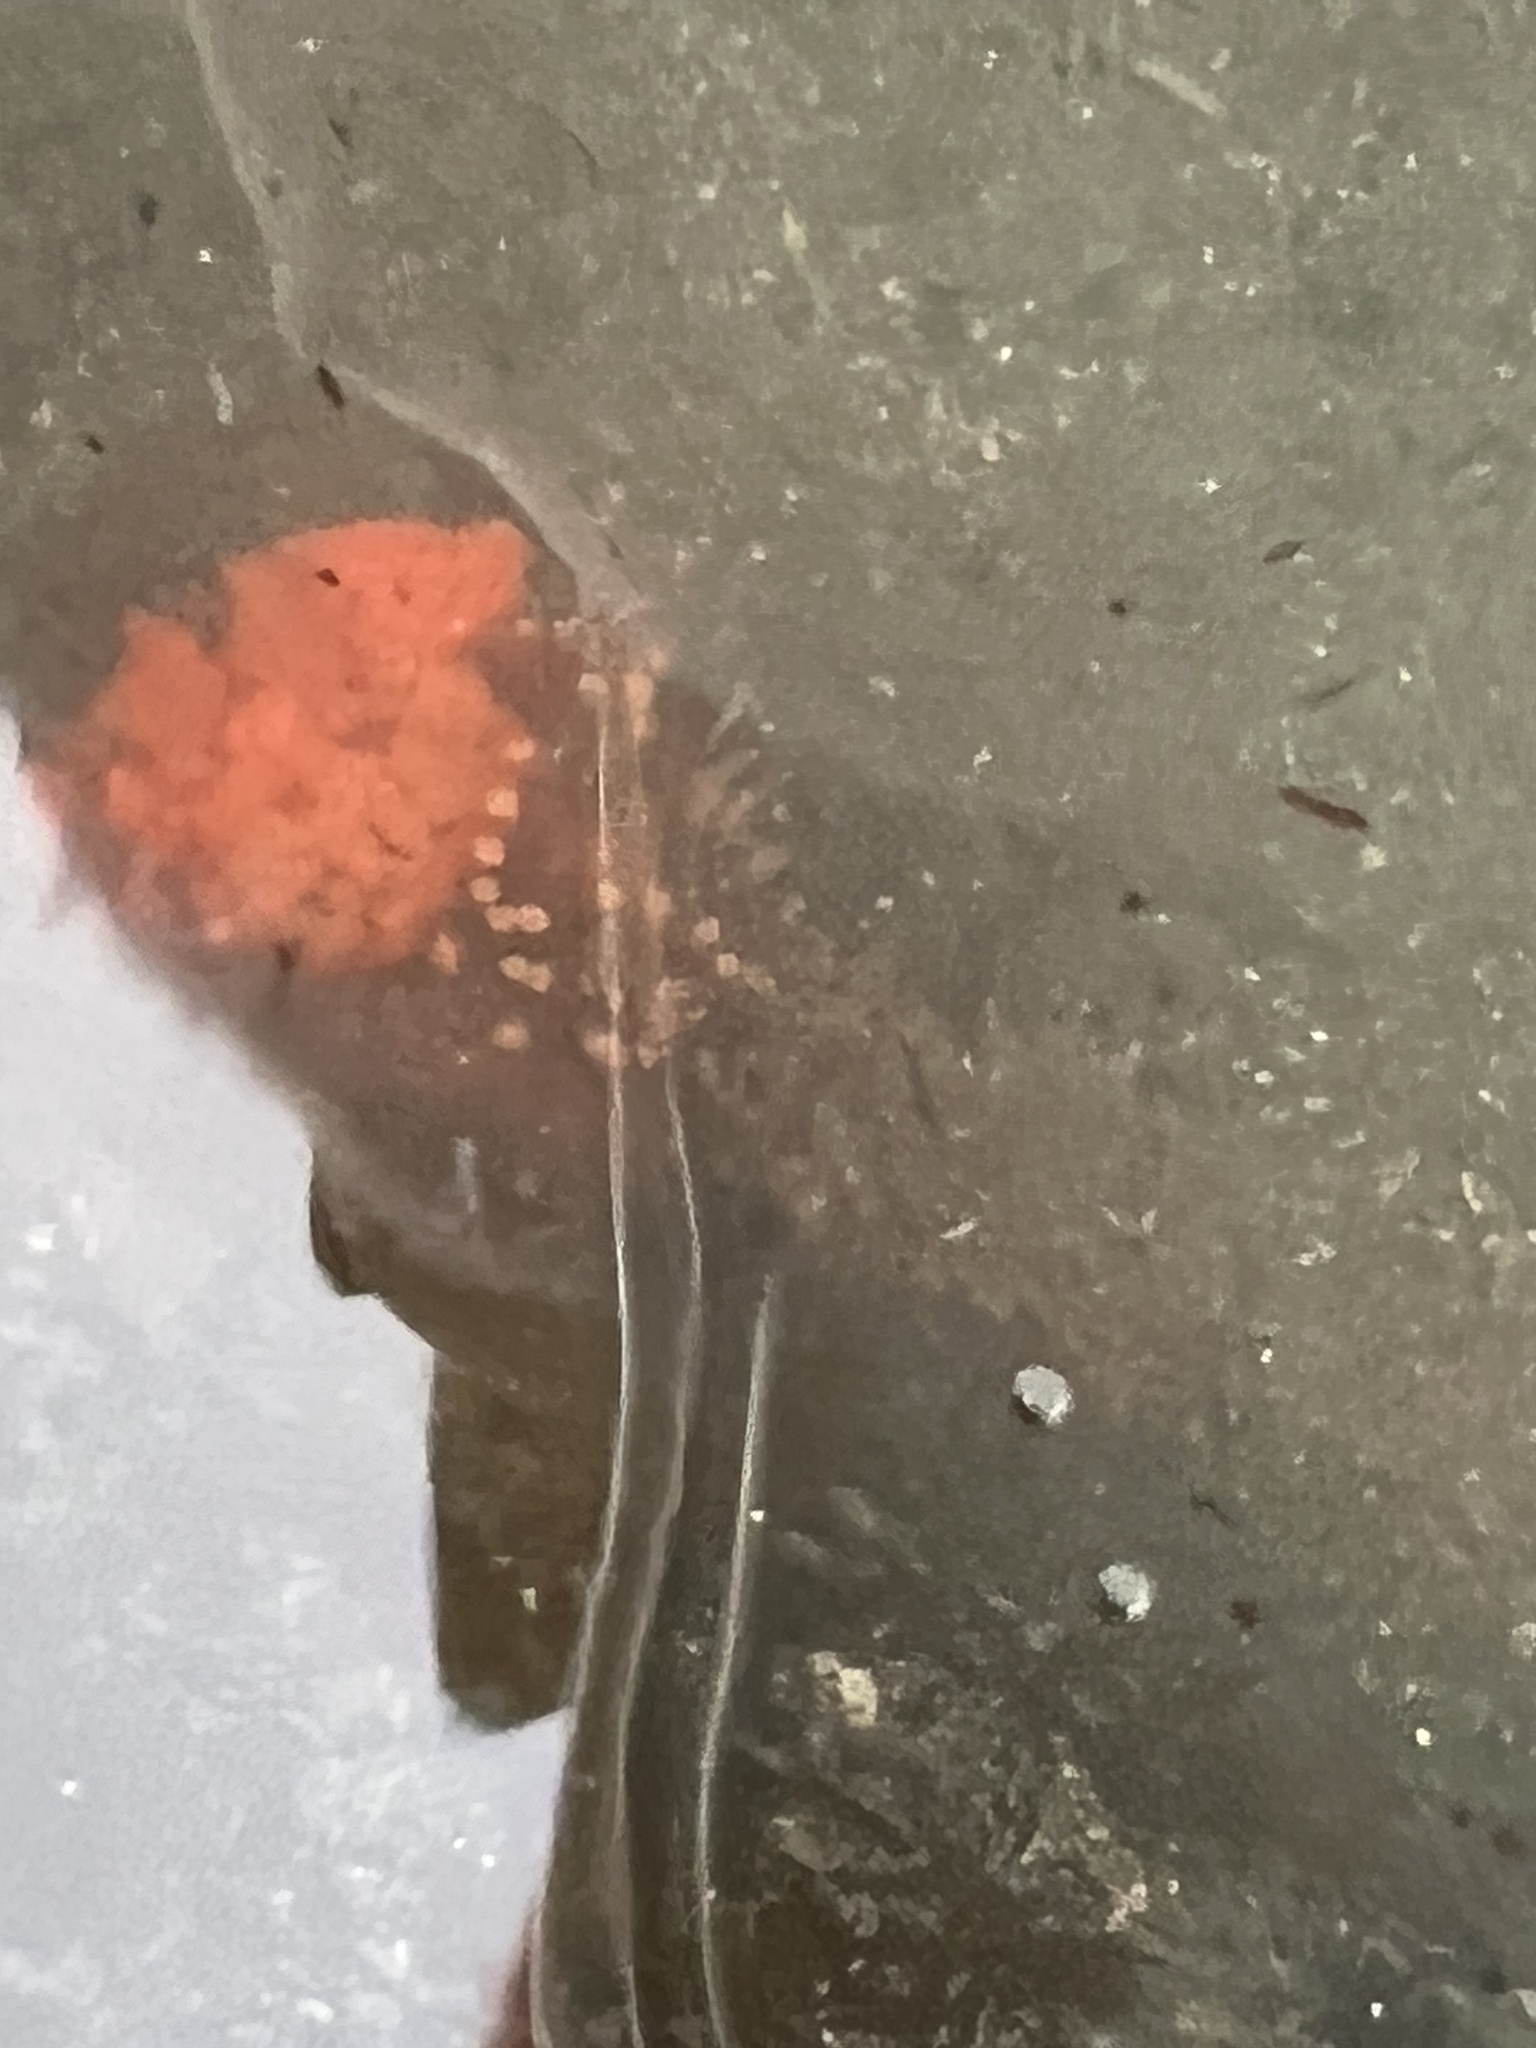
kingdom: Animalia
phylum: Echinodermata
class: Holothuroidea
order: Dendrochirotida
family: Cucumariidae
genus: Cucumaria
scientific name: Cucumaria miniata
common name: Orange sea cucumber
